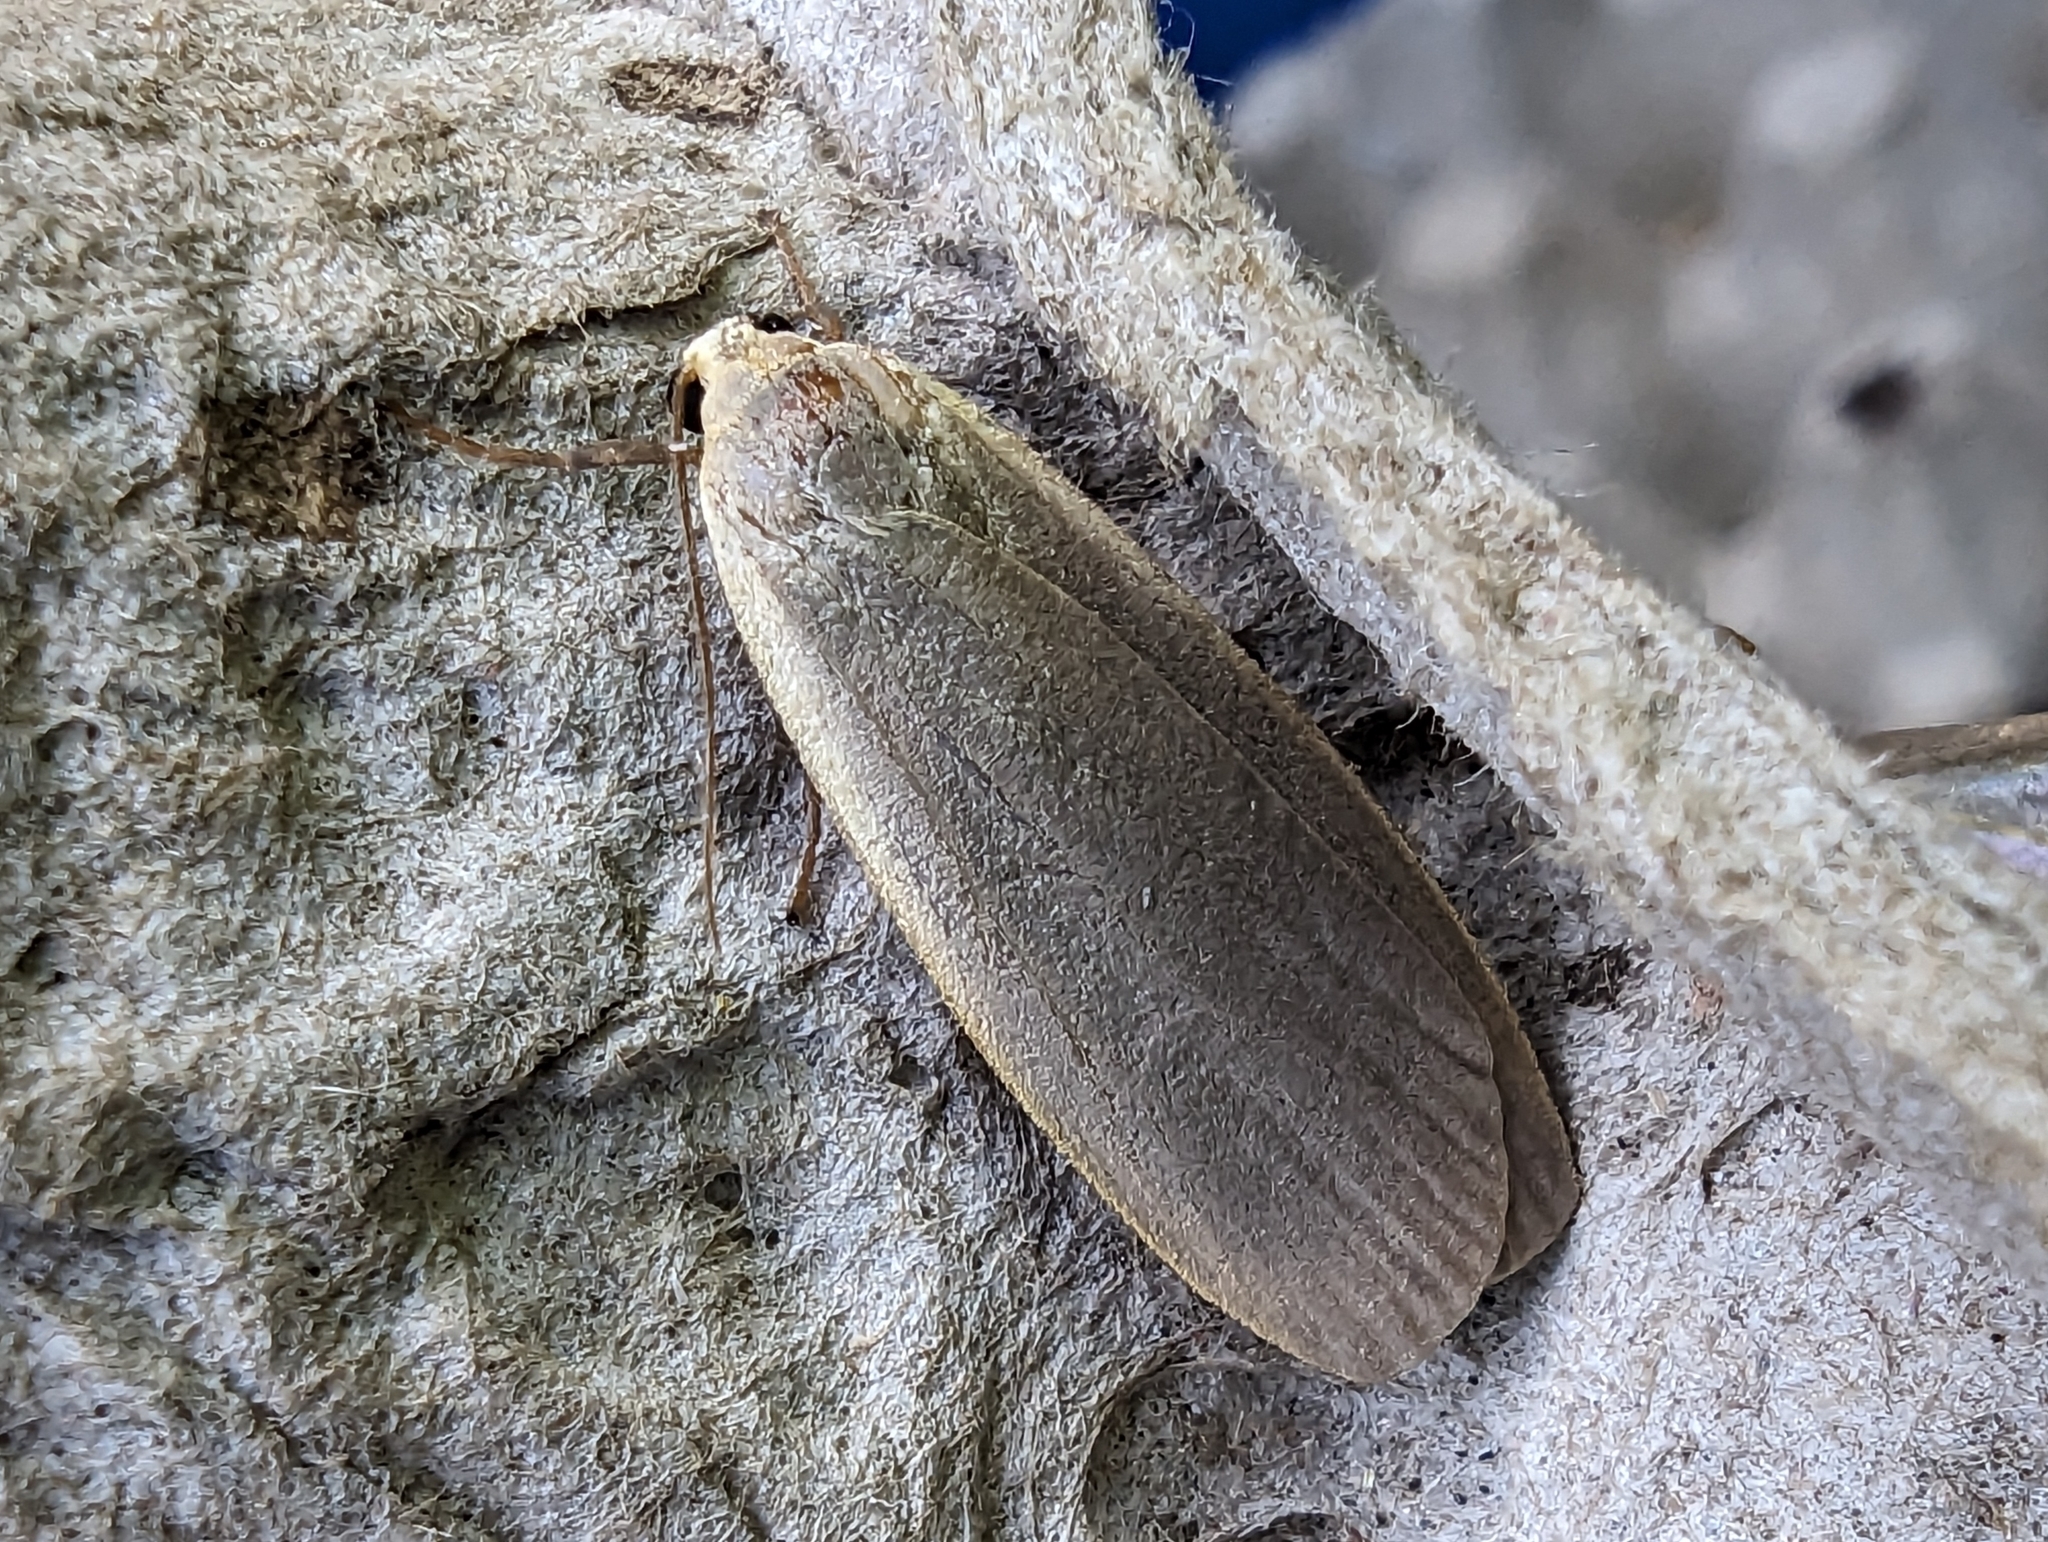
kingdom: Animalia
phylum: Arthropoda
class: Insecta
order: Lepidoptera
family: Erebidae
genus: Collita
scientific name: Collita griseola
